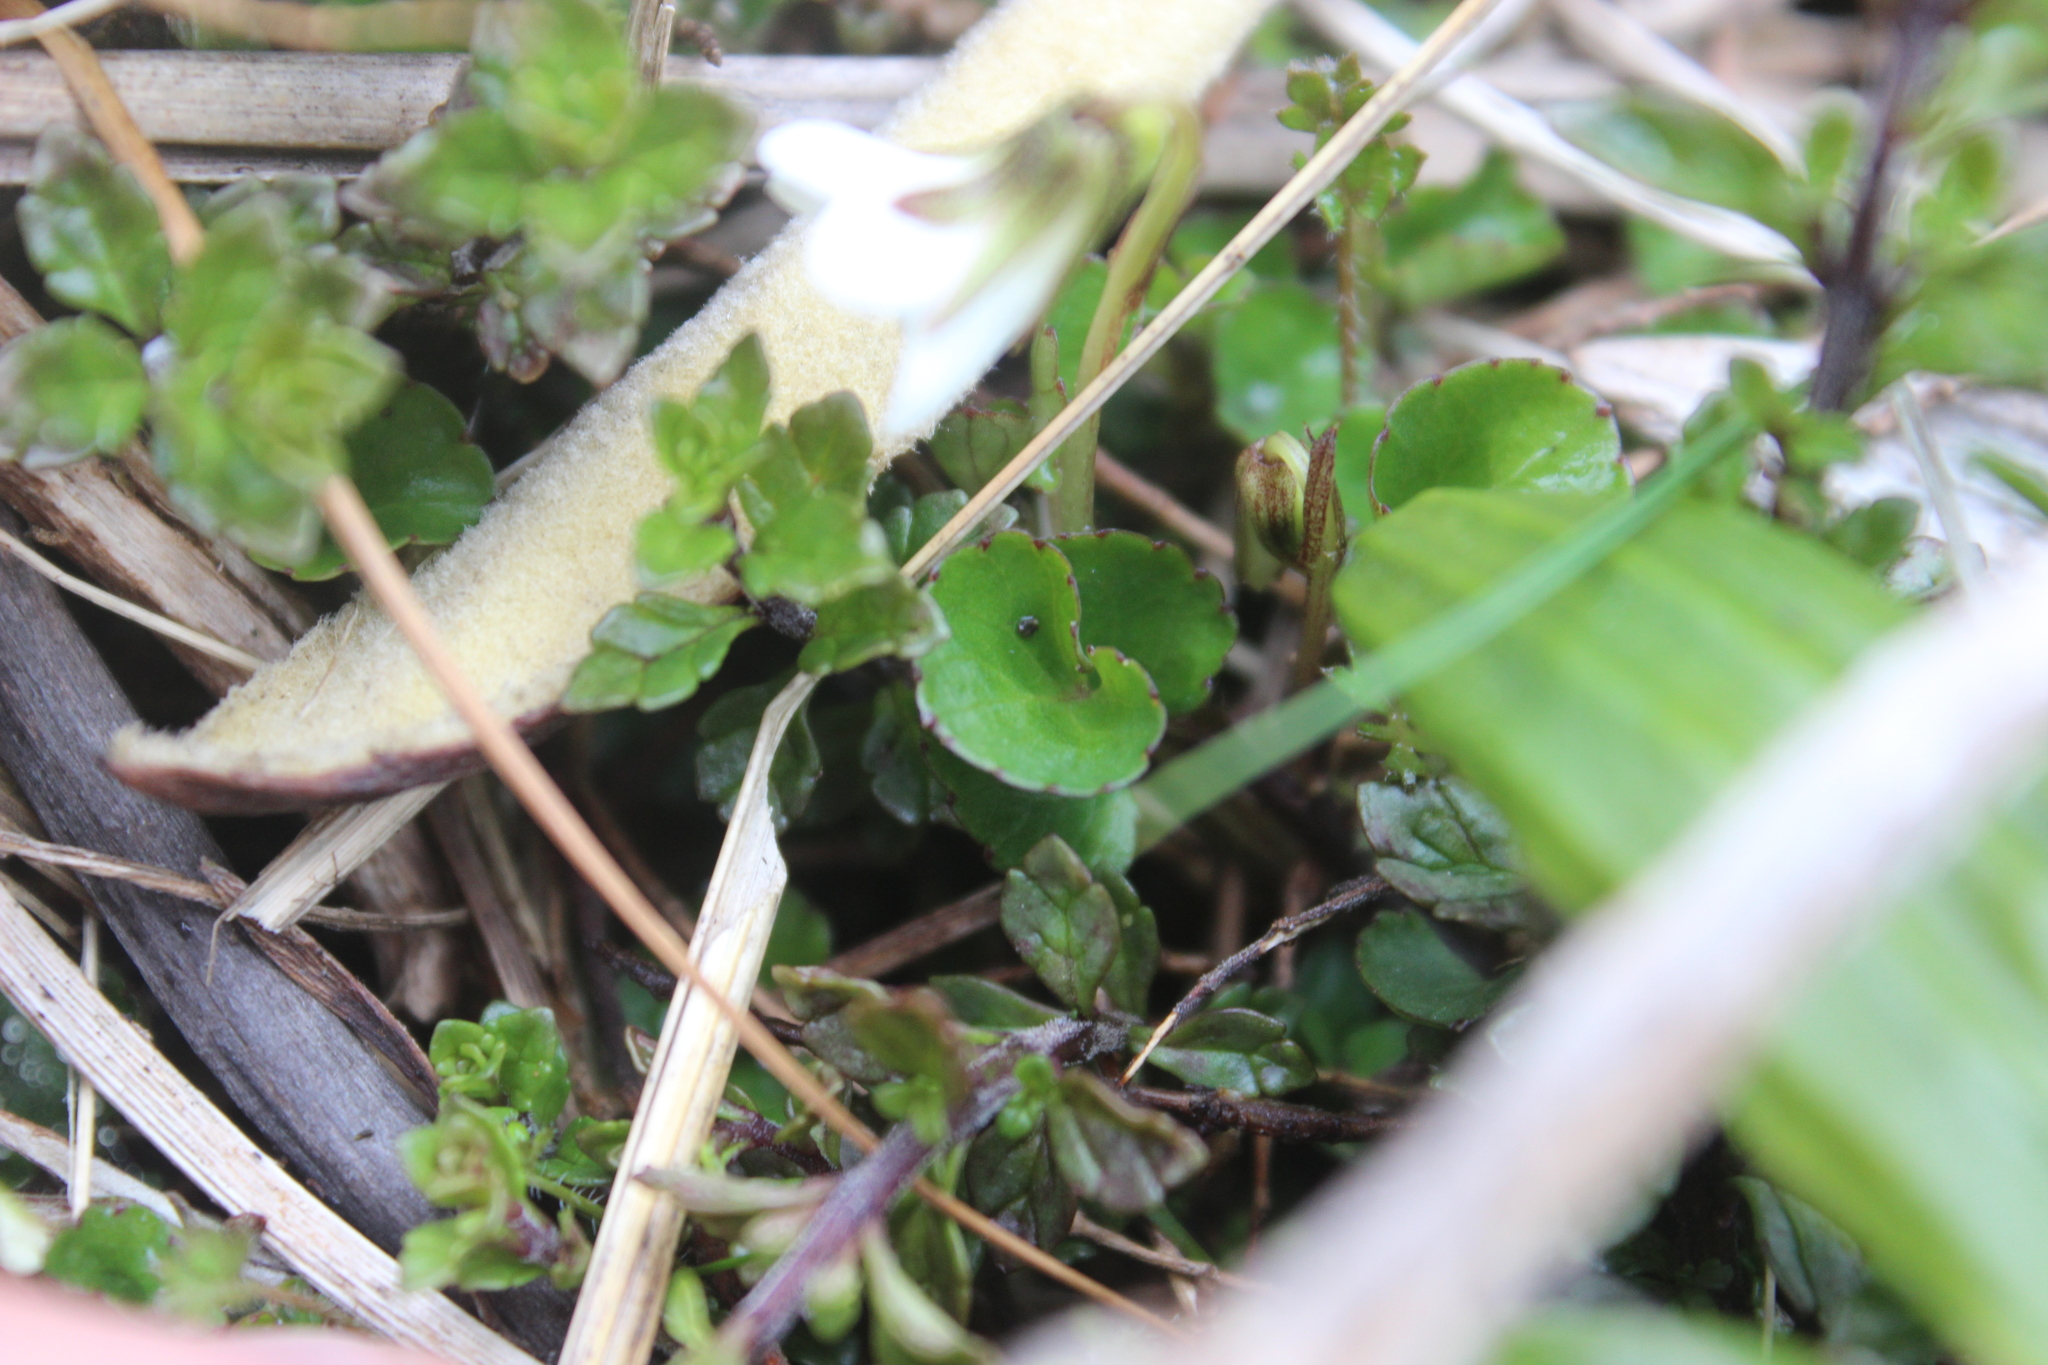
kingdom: Plantae
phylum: Tracheophyta
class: Magnoliopsida
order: Malpighiales
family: Violaceae
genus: Viola
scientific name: Viola cunninghamii
